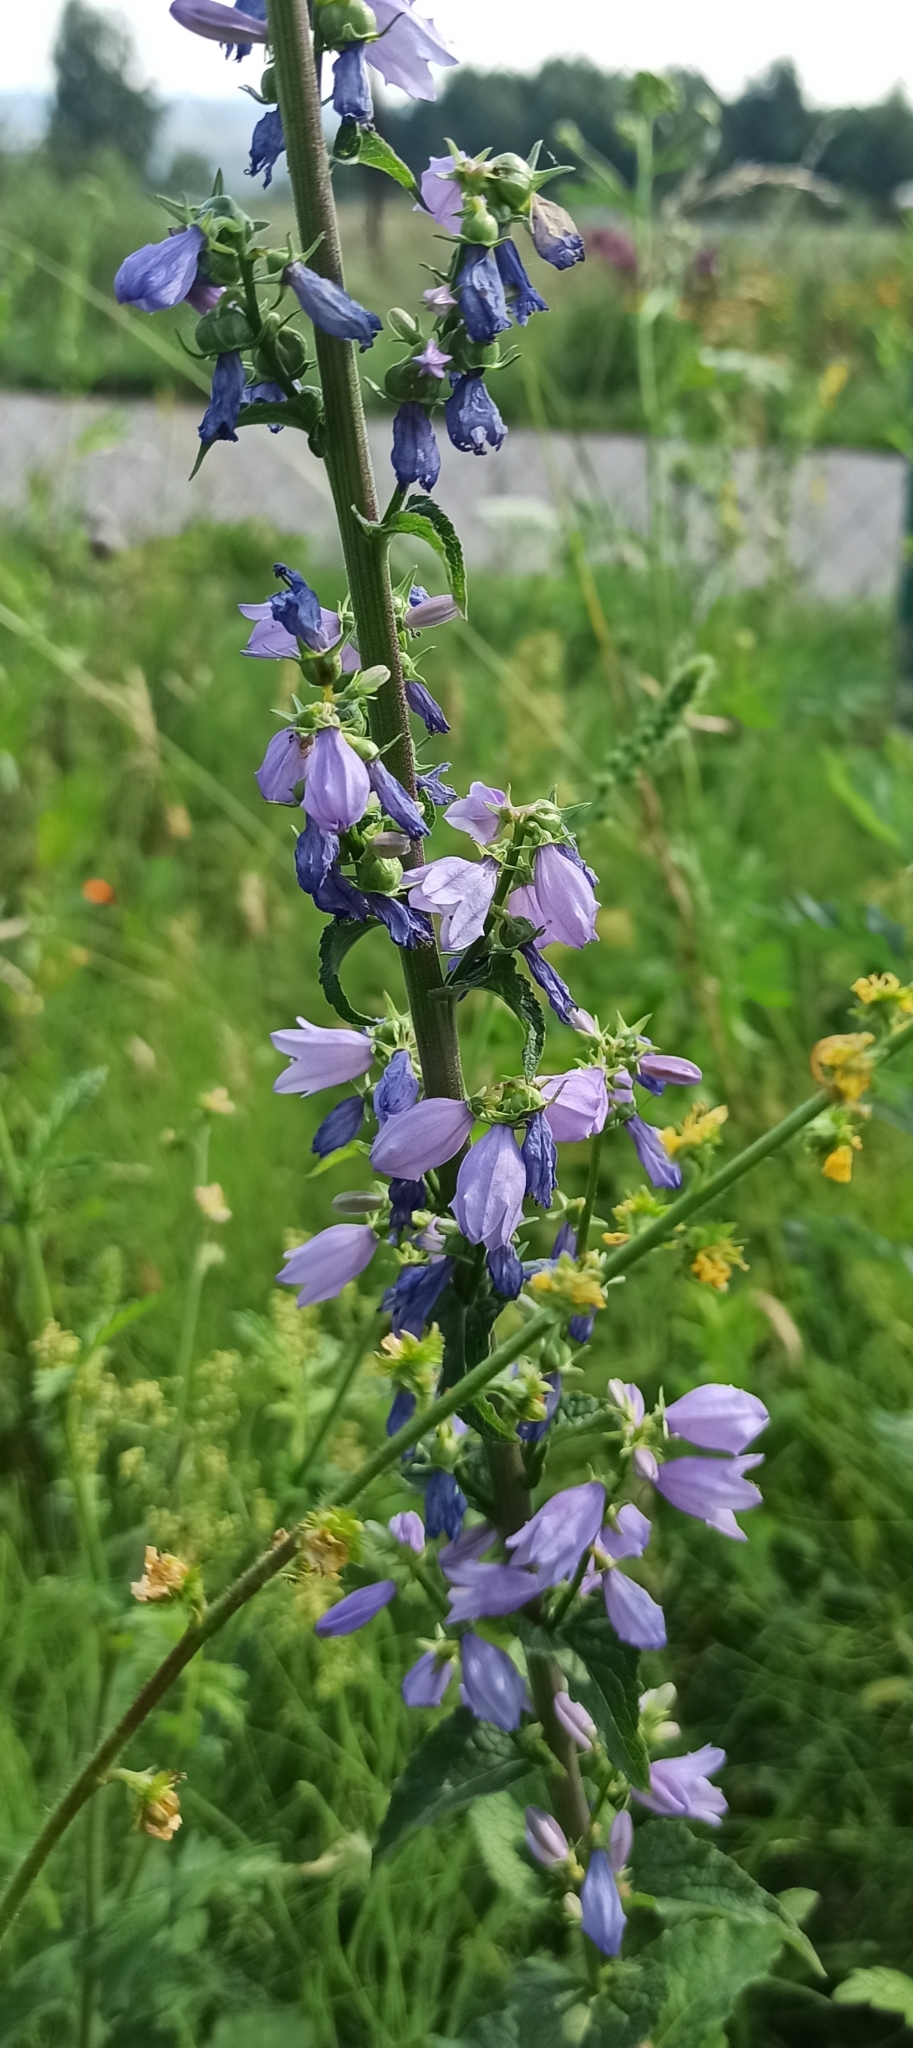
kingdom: Plantae
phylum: Tracheophyta
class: Magnoliopsida
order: Asterales
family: Campanulaceae
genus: Campanula
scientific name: Campanula rapunculoides
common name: Creeping bellflower
